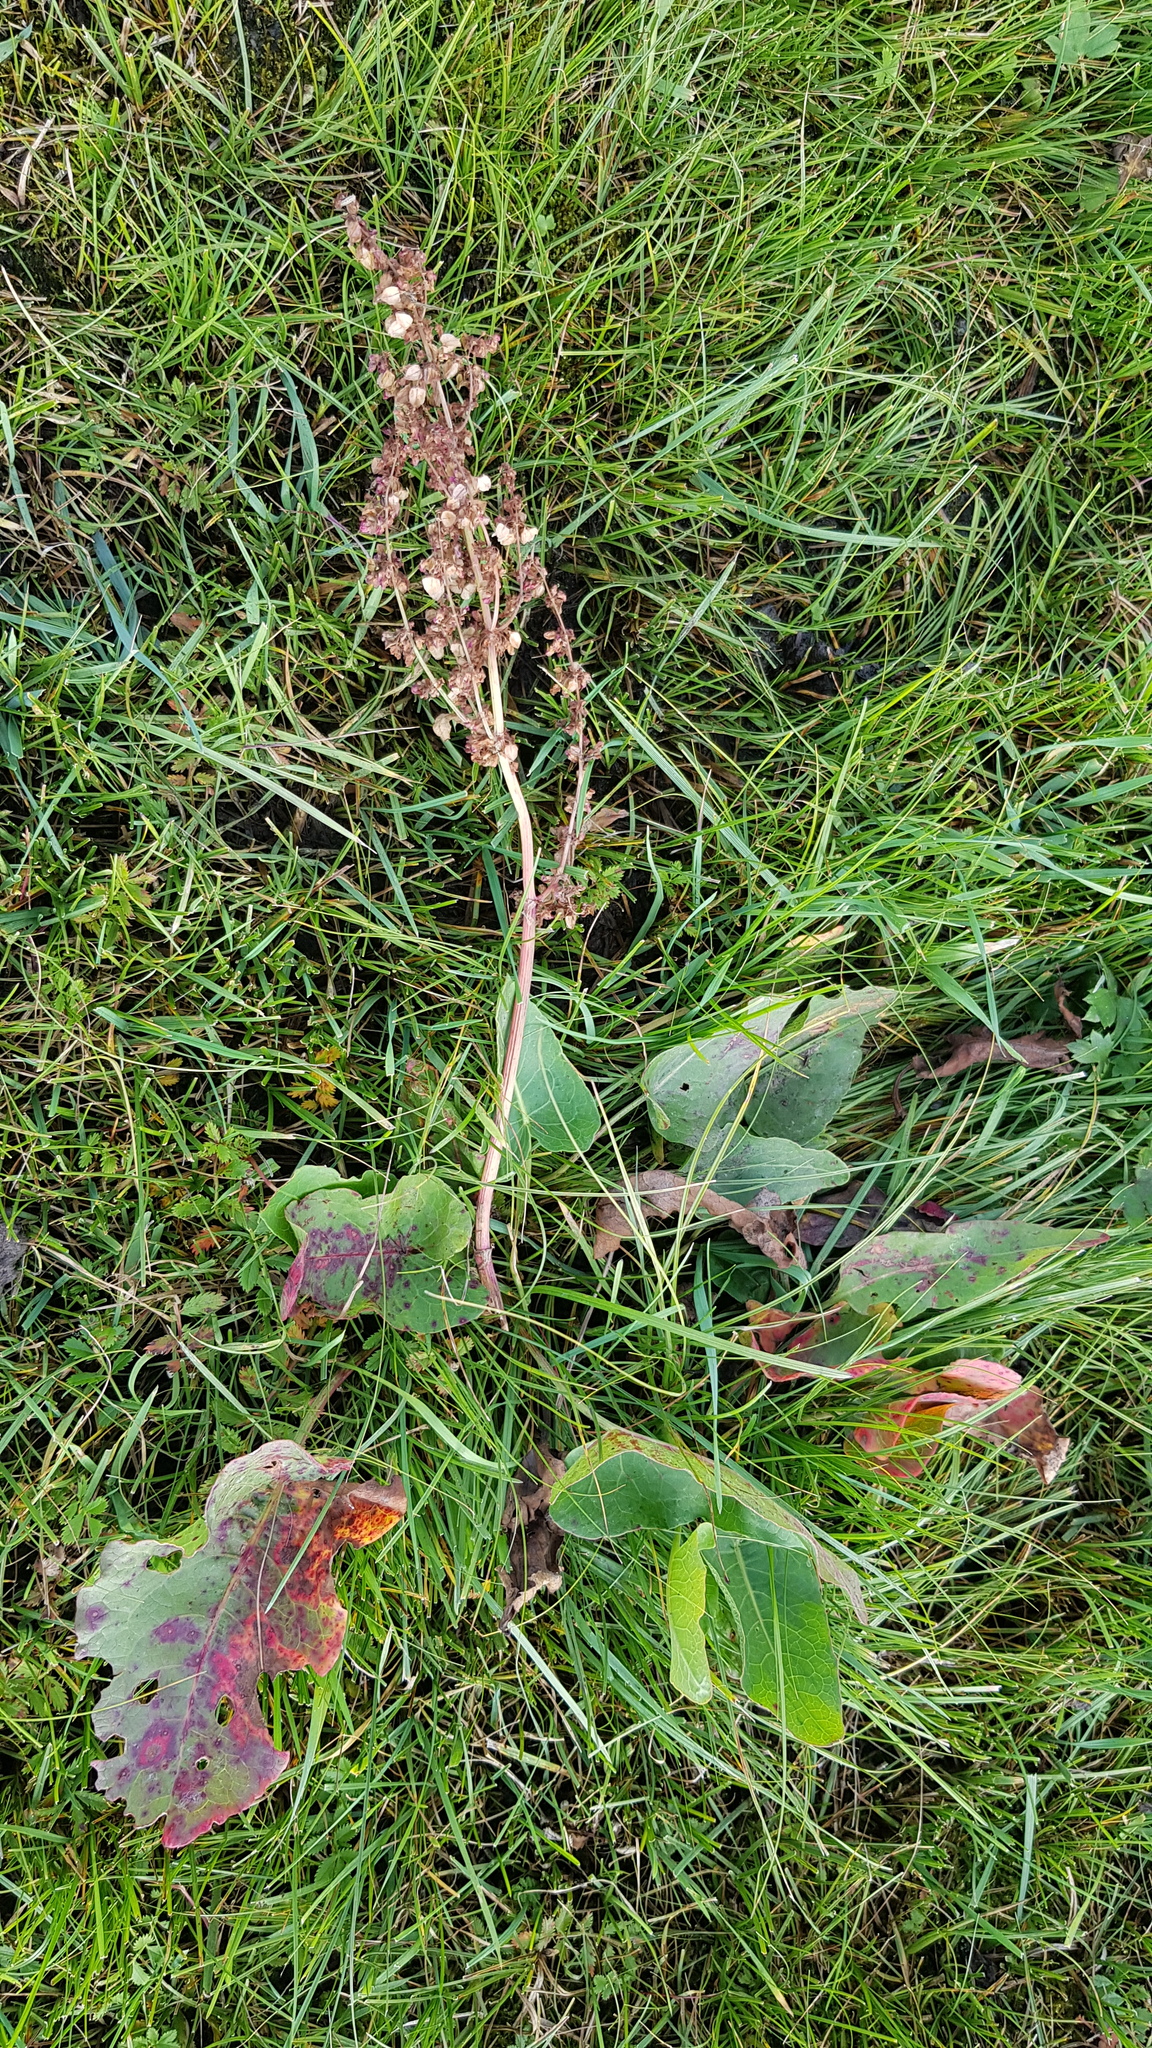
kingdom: Plantae
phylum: Tracheophyta
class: Magnoliopsida
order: Caryophyllales
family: Polygonaceae
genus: Rumex
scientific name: Rumex aquaticus
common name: Scottish dock
